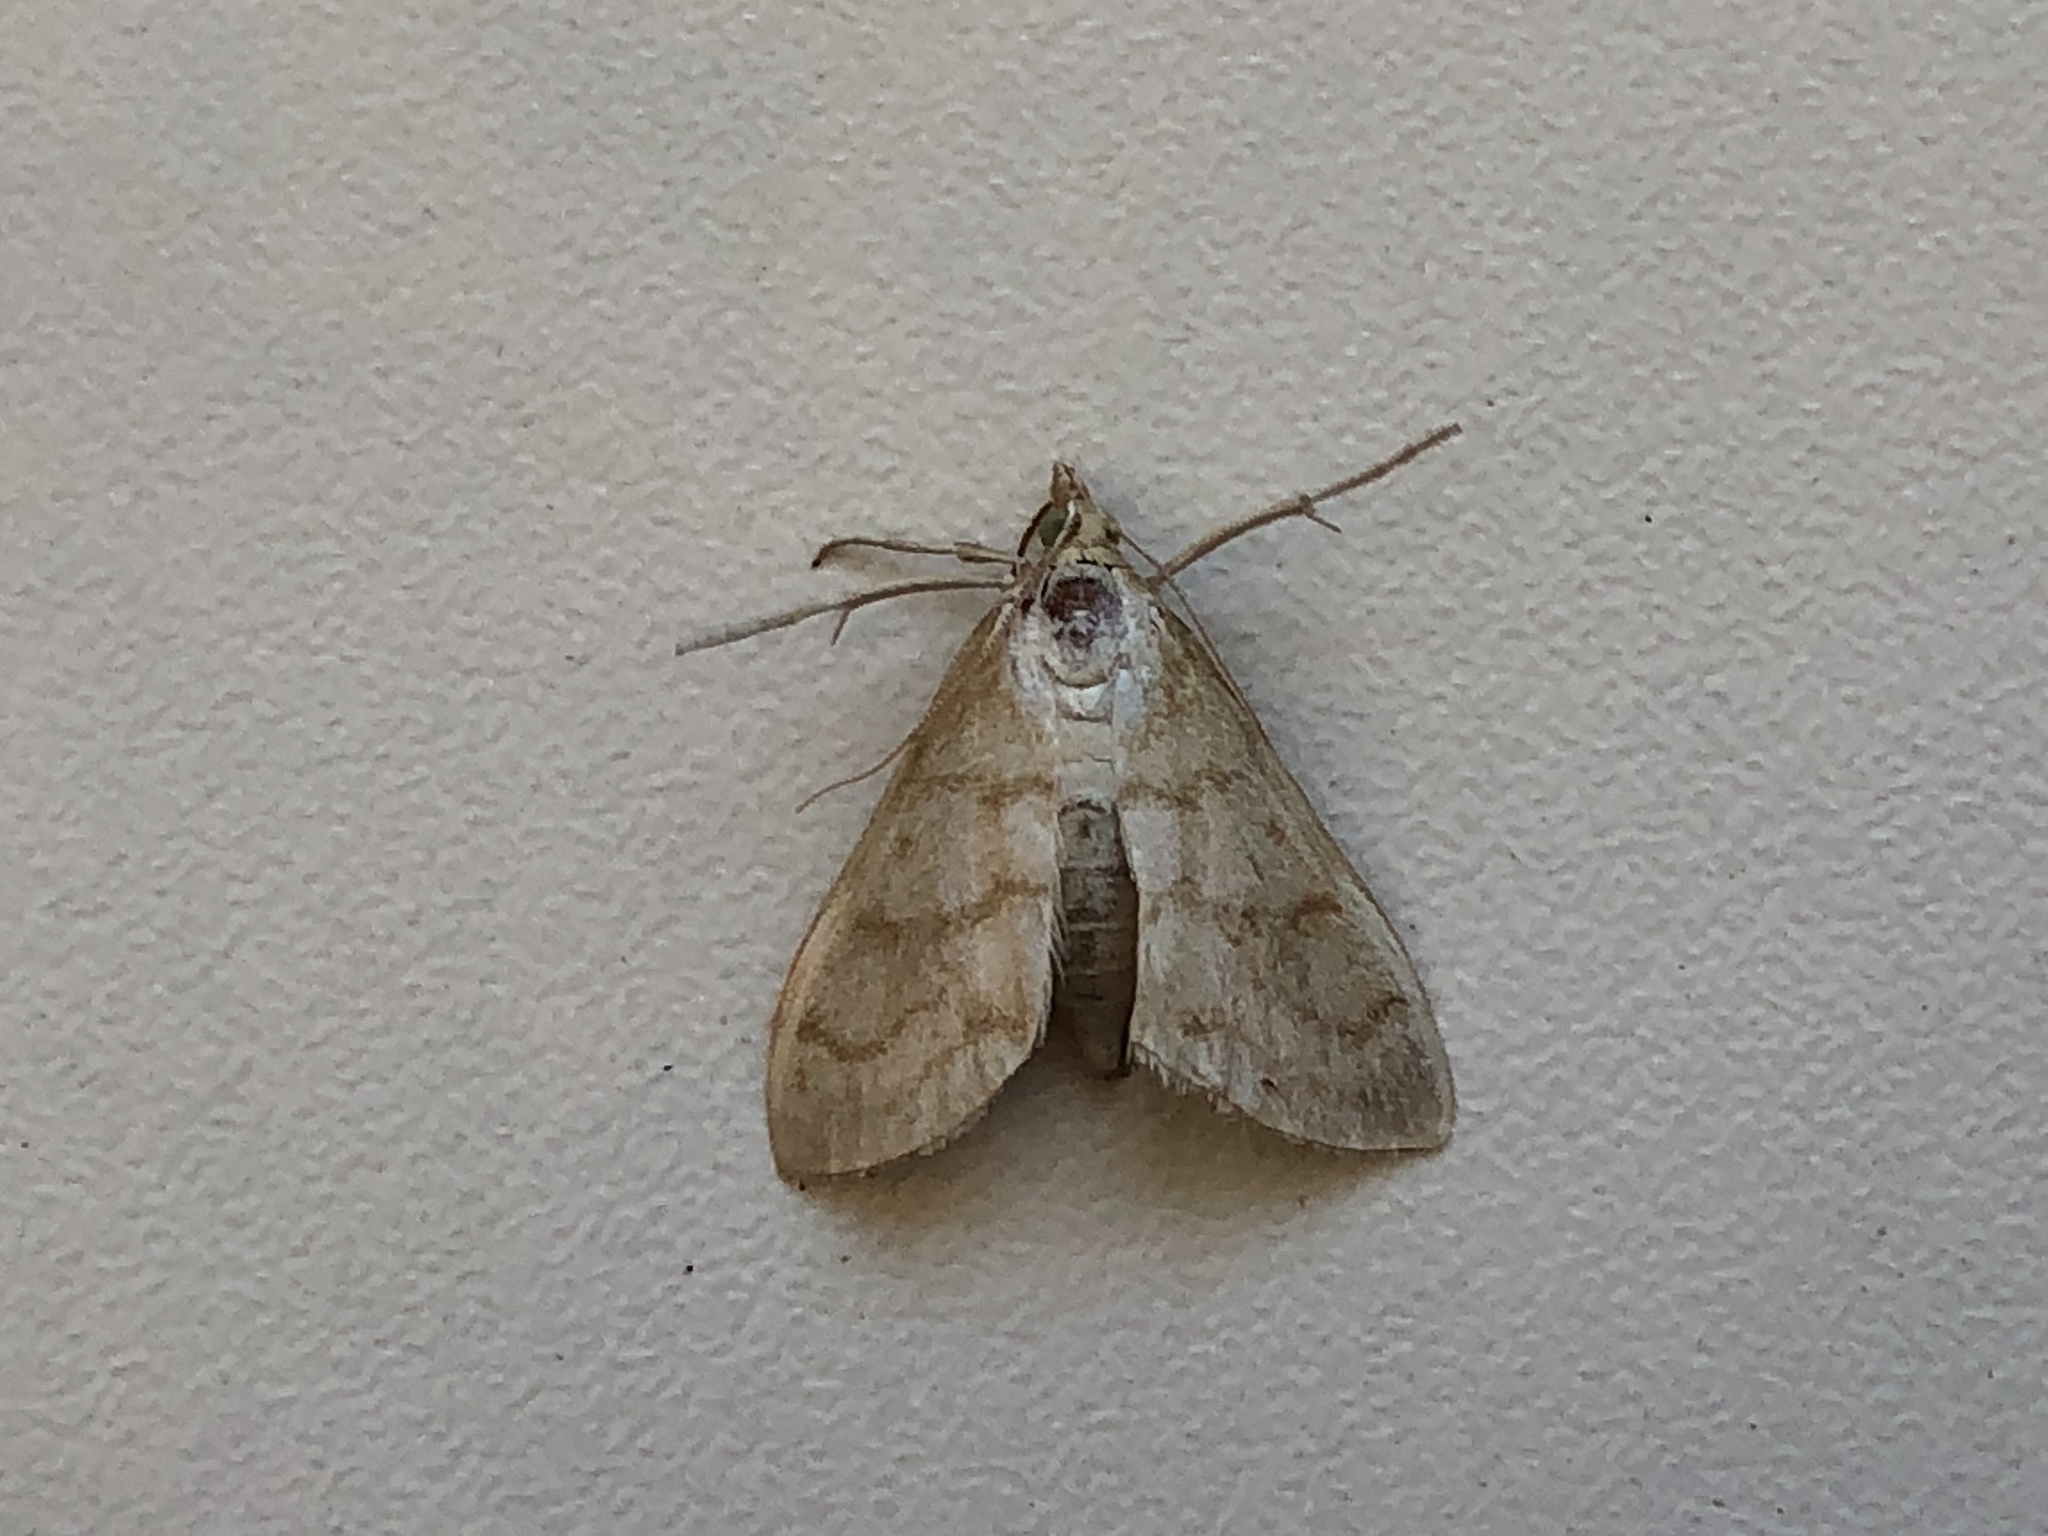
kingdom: Animalia
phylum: Arthropoda
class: Insecta
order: Lepidoptera
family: Crambidae
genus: Paracorsia
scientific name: Paracorsia repandalis
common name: Mullein moth
